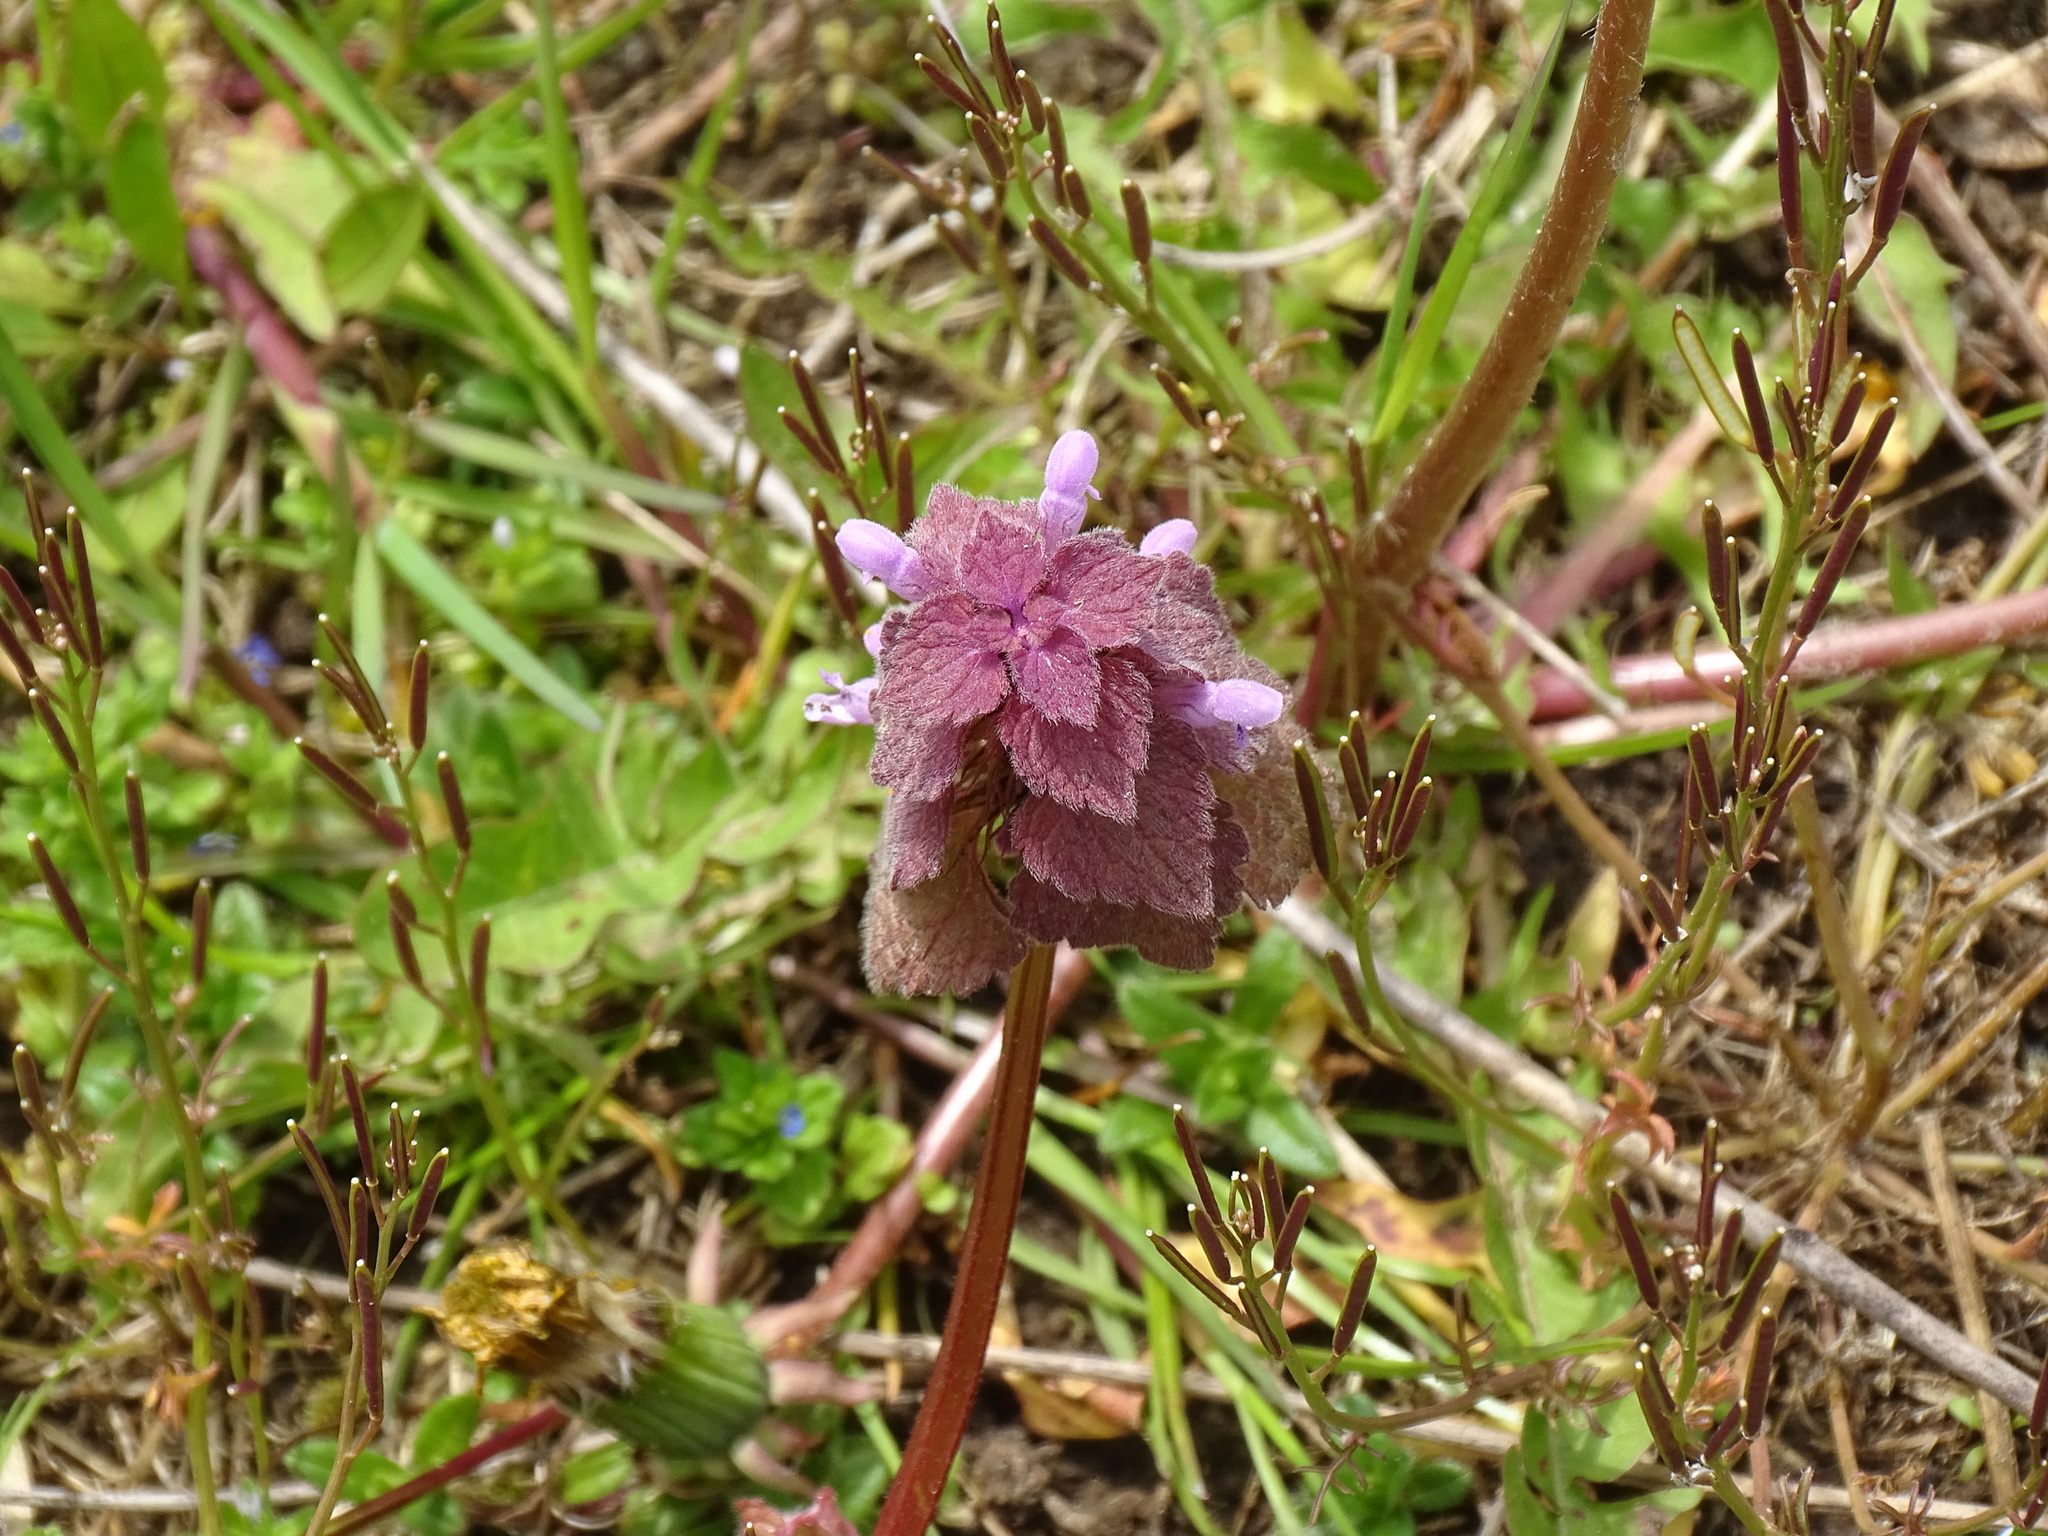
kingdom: Plantae
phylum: Tracheophyta
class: Magnoliopsida
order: Lamiales
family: Lamiaceae
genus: Lamium
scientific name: Lamium purpureum
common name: Red dead-nettle
